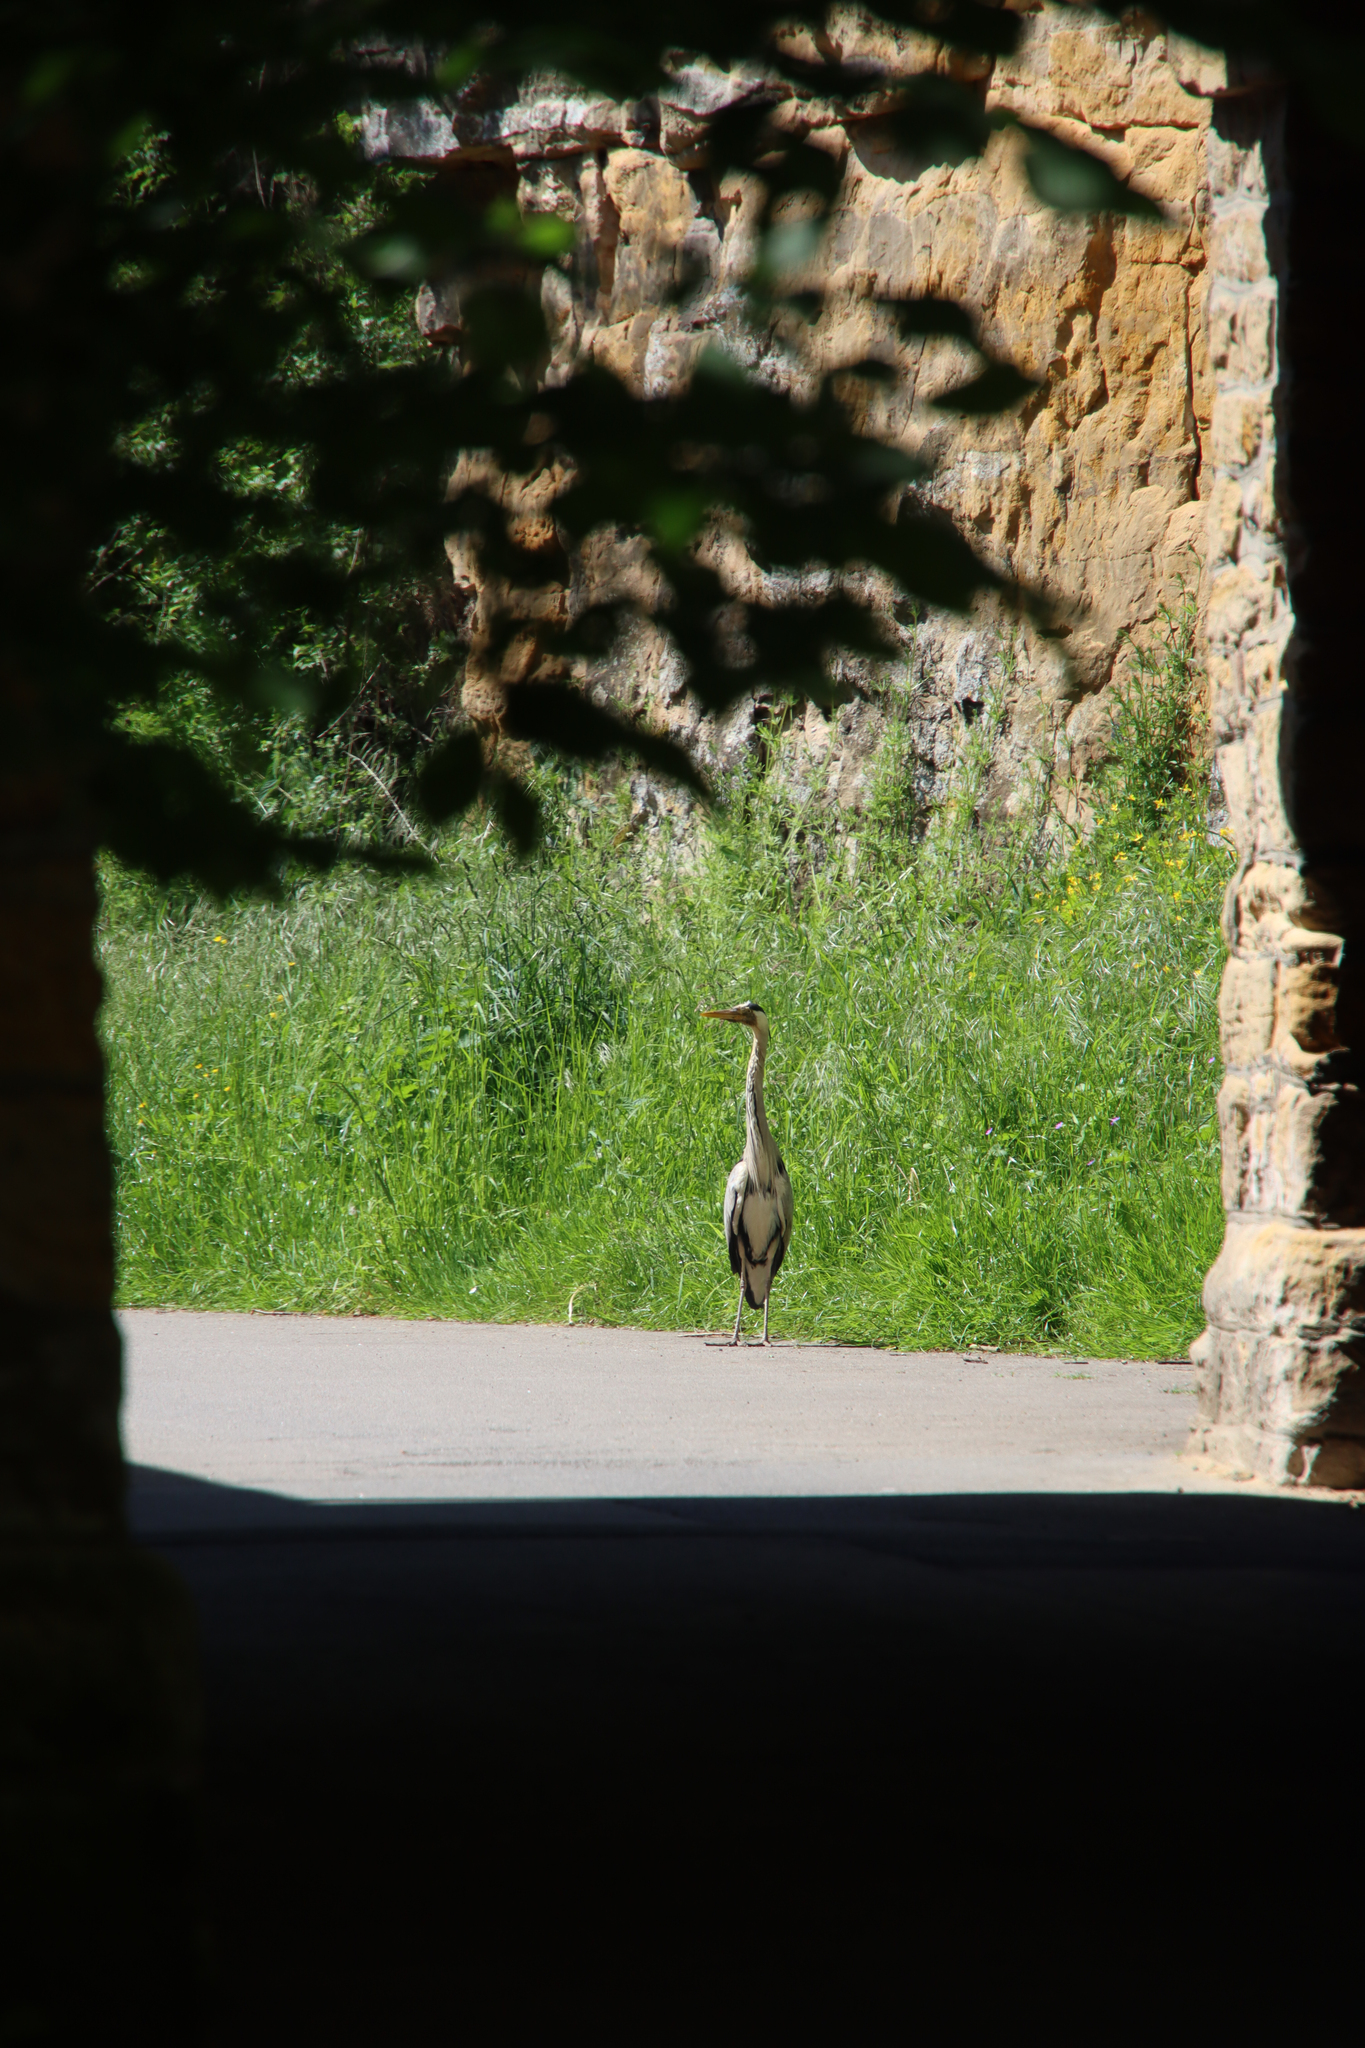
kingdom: Animalia
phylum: Chordata
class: Aves
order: Pelecaniformes
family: Ardeidae
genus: Ardea
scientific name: Ardea cinerea
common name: Grey heron
